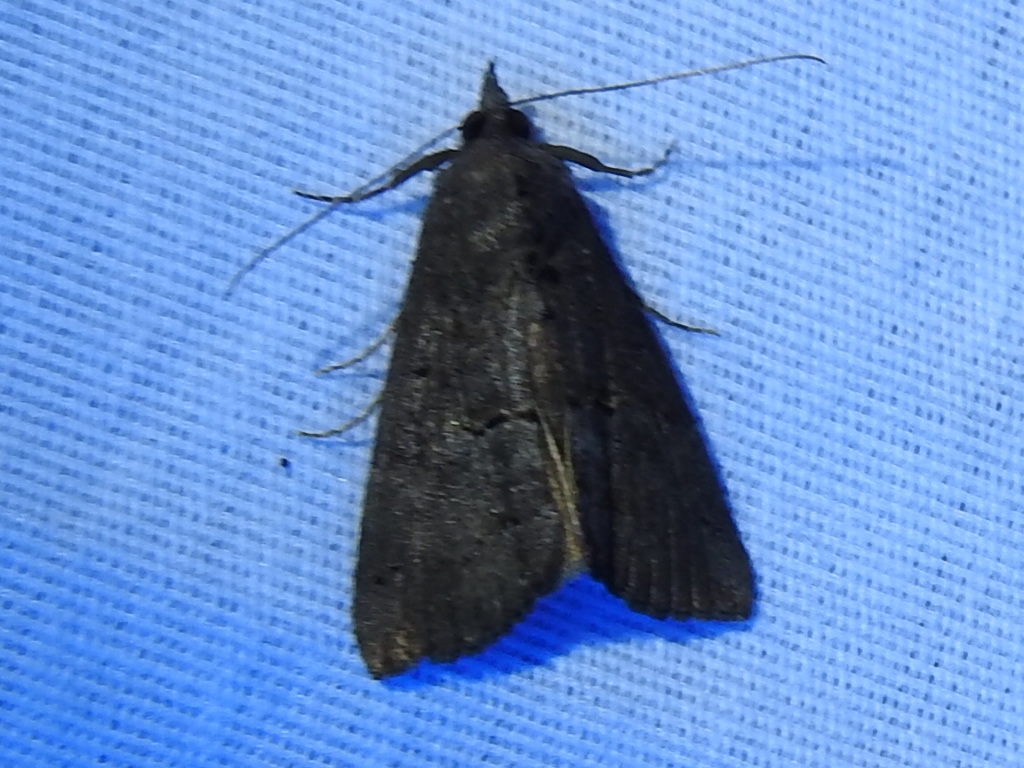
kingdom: Animalia
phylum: Arthropoda
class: Insecta
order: Lepidoptera
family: Erebidae
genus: Hypena
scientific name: Hypena scabra
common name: Green cloverworm
